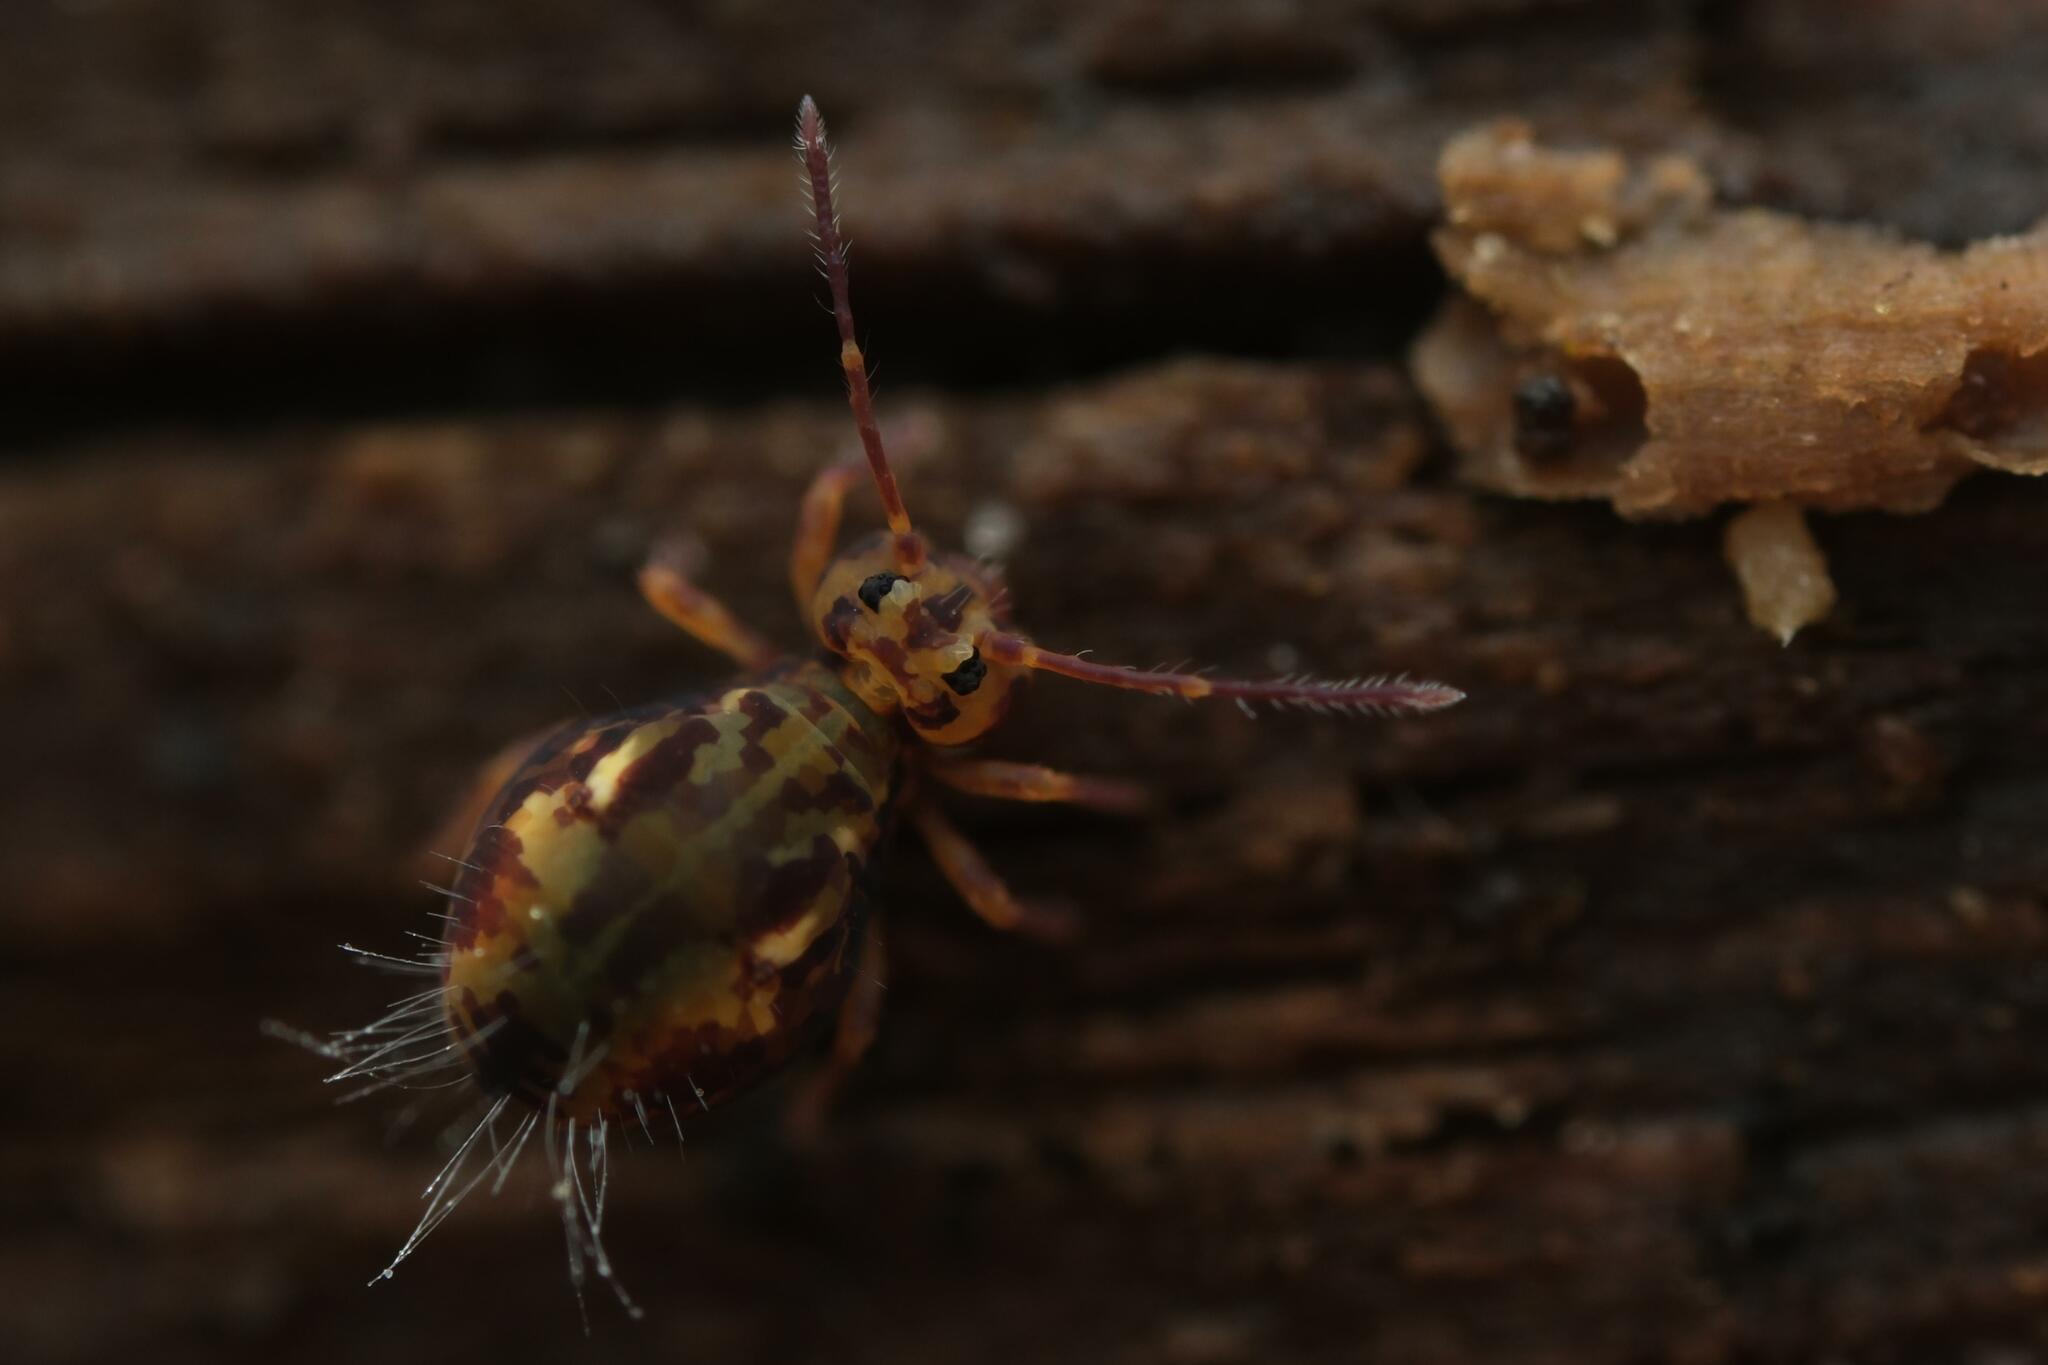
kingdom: Animalia
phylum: Arthropoda
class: Collembola
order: Symphypleona
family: Dicyrtomidae
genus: Dicyrtomina
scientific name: Dicyrtomina saundersi
